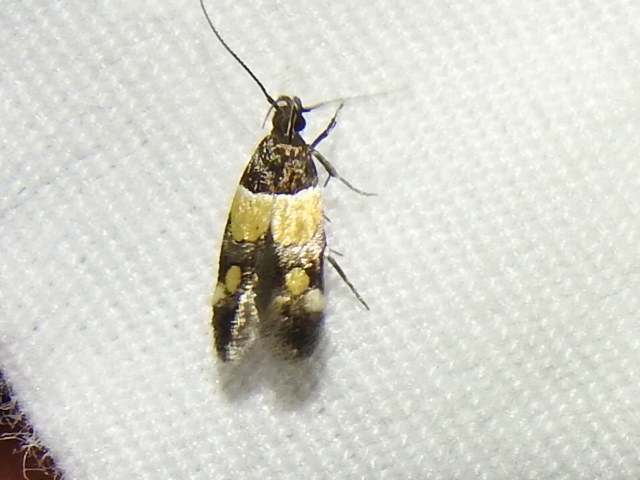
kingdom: Animalia
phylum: Arthropoda
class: Insecta
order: Lepidoptera
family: Momphidae
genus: Triclonella
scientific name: Triclonella determinatella
